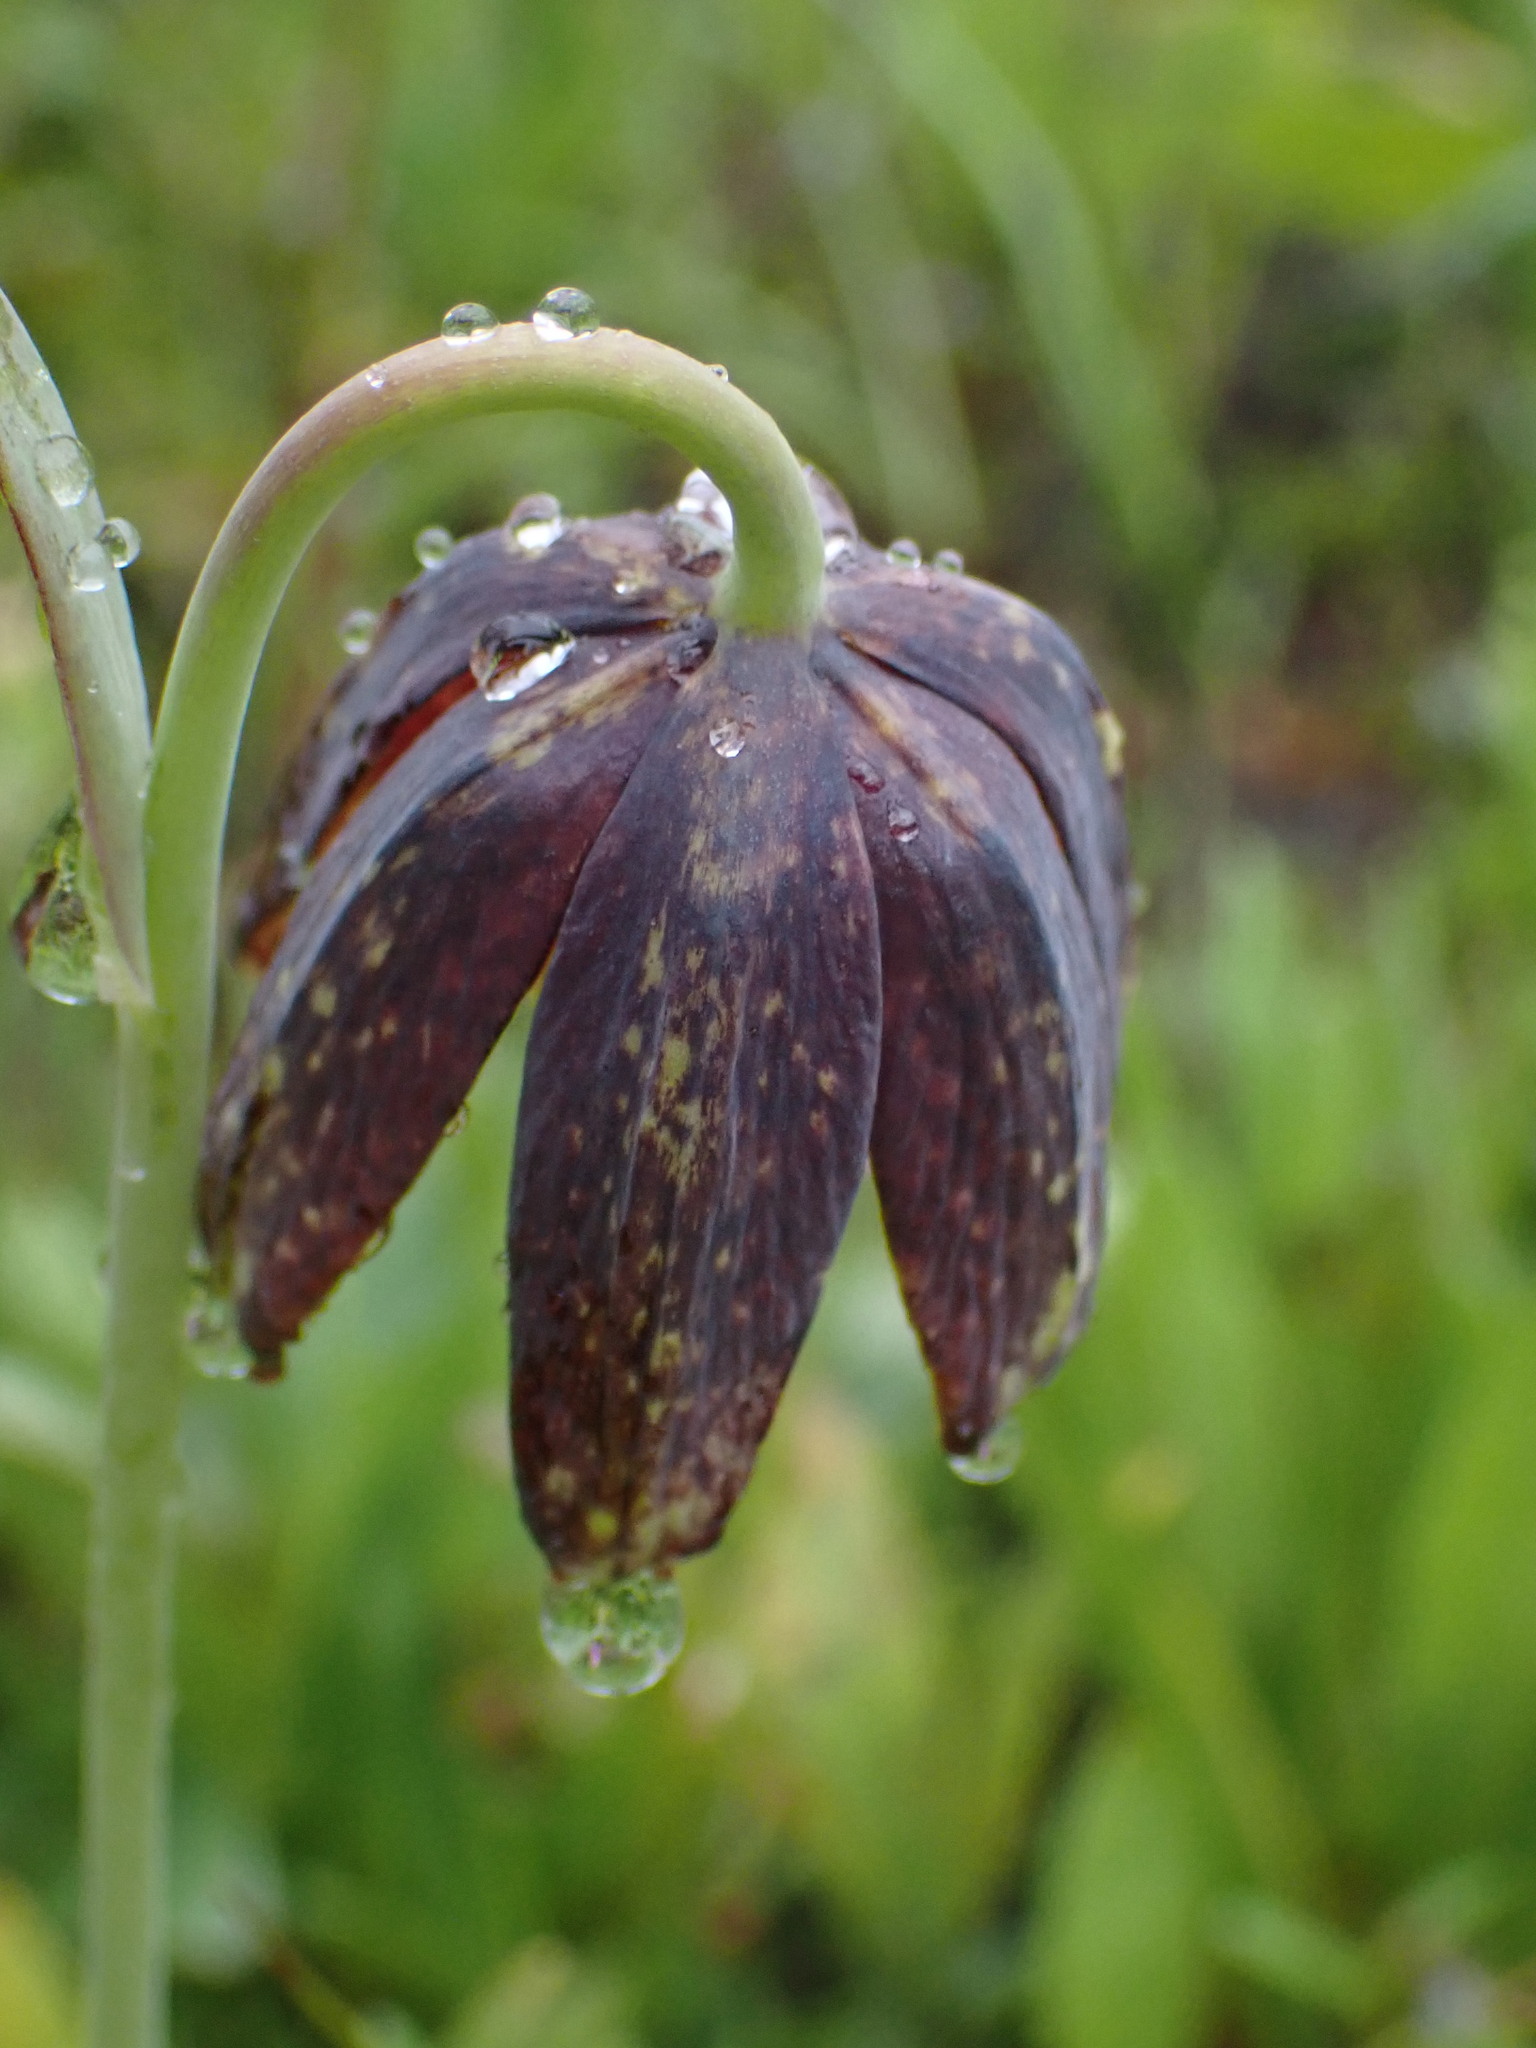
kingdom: Plantae
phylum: Tracheophyta
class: Liliopsida
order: Liliales
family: Liliaceae
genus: Fritillaria
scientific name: Fritillaria affinis
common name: Ojai fritillary
